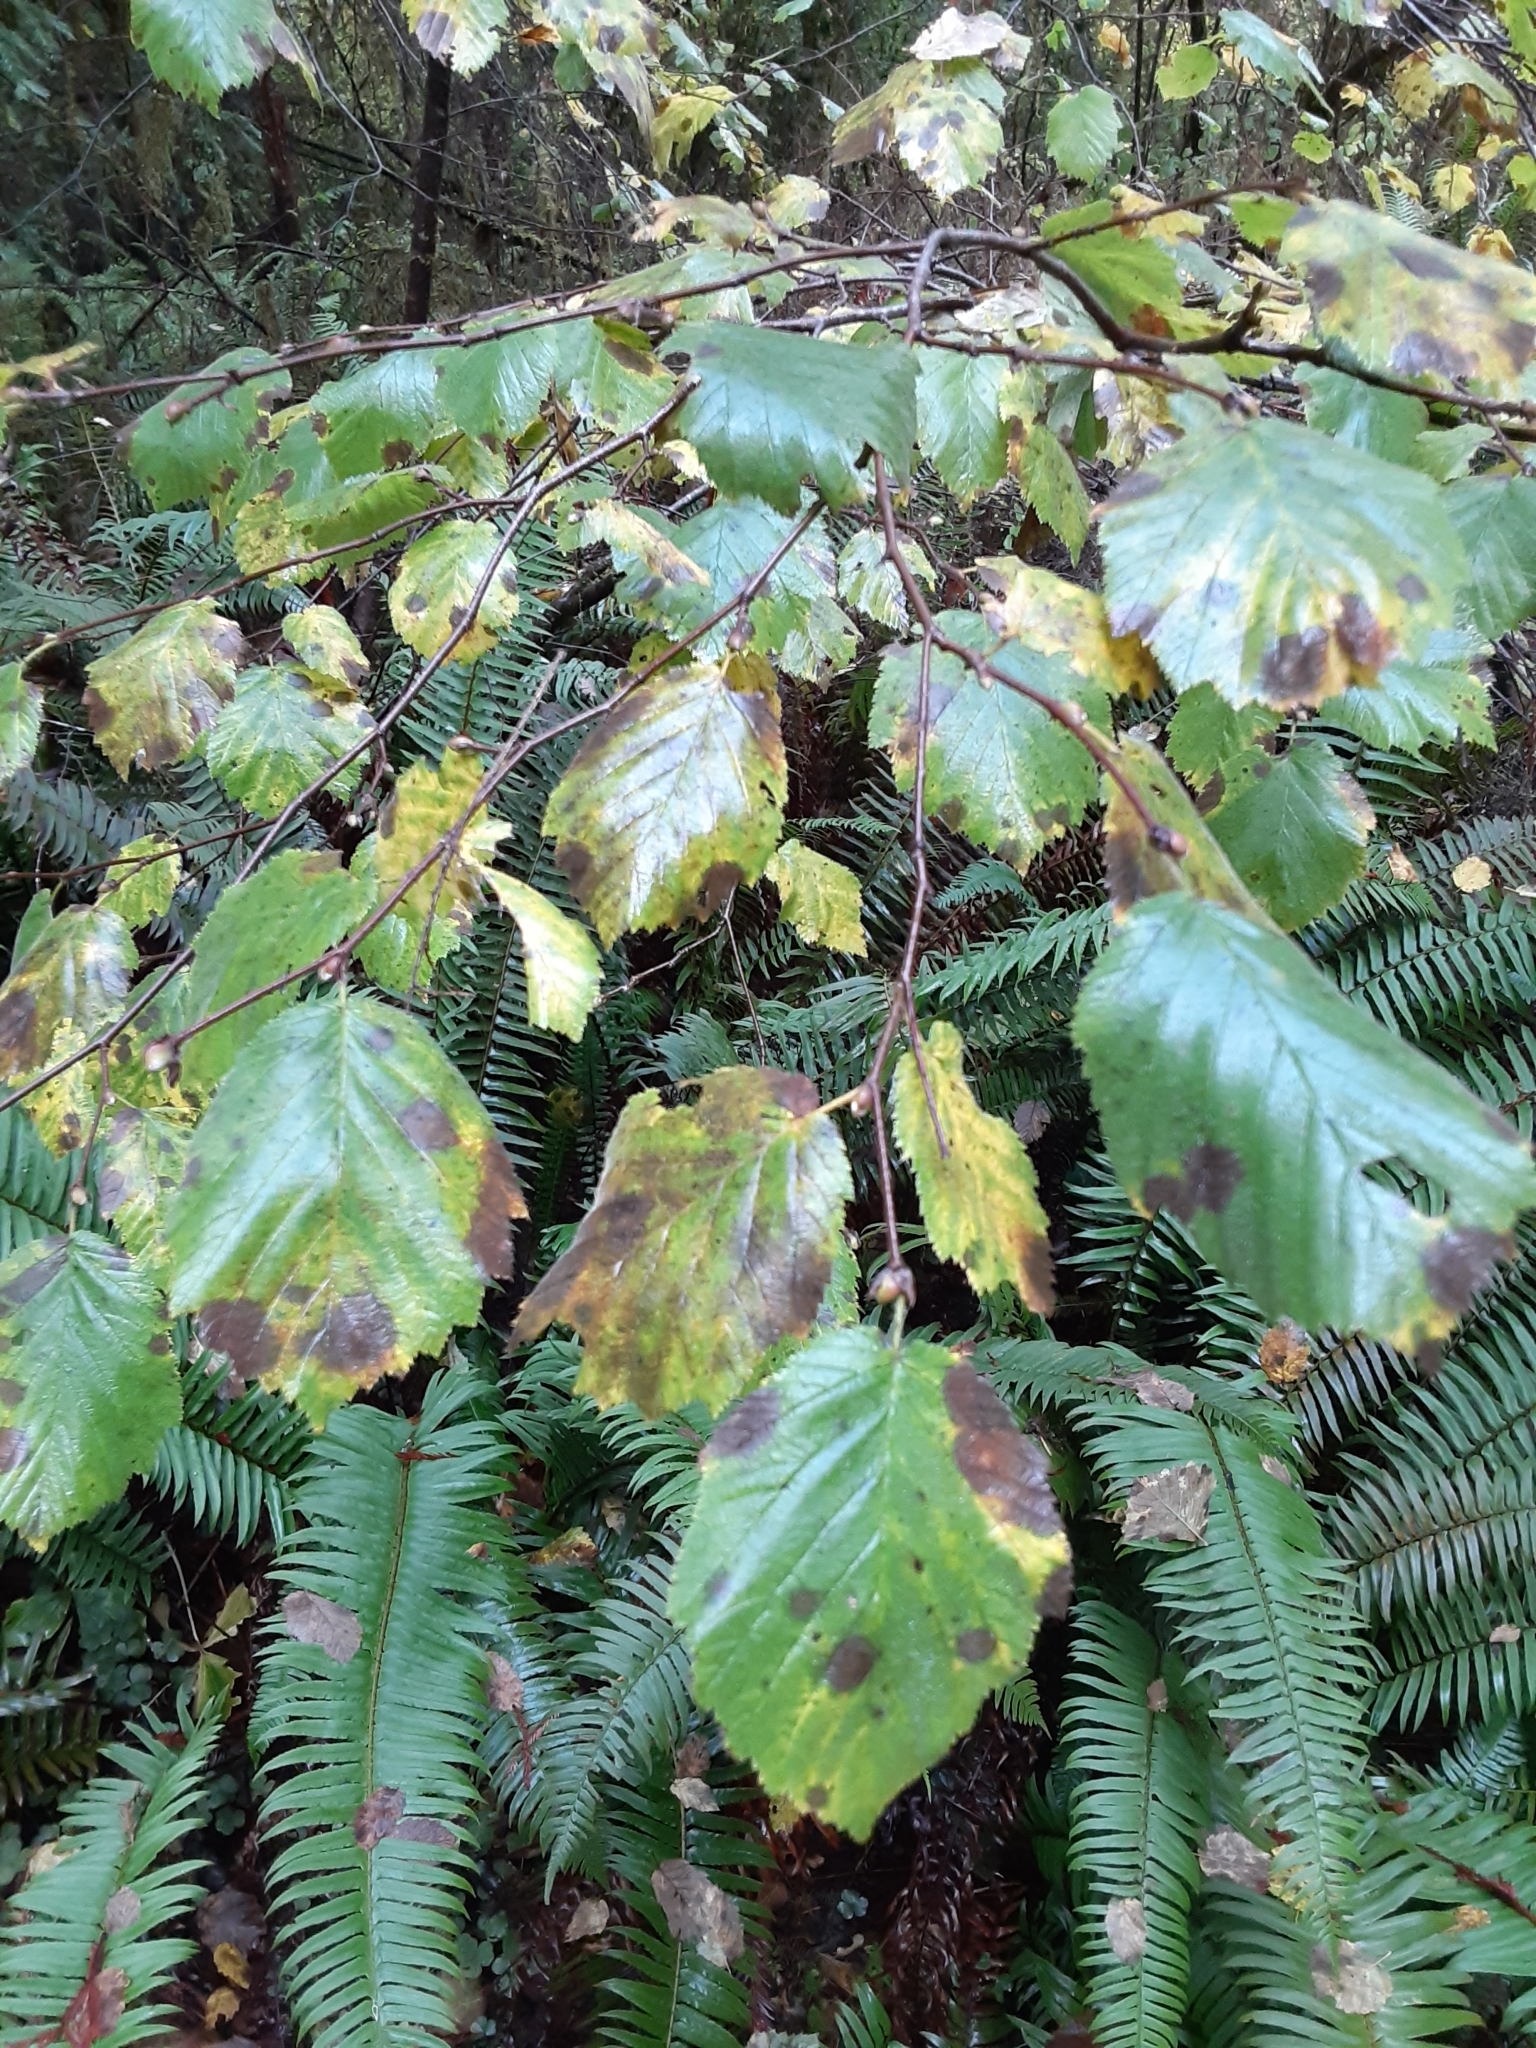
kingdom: Plantae
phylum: Tracheophyta
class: Magnoliopsida
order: Fagales
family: Betulaceae
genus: Corylus
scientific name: Corylus cornuta
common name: Beaked hazel
